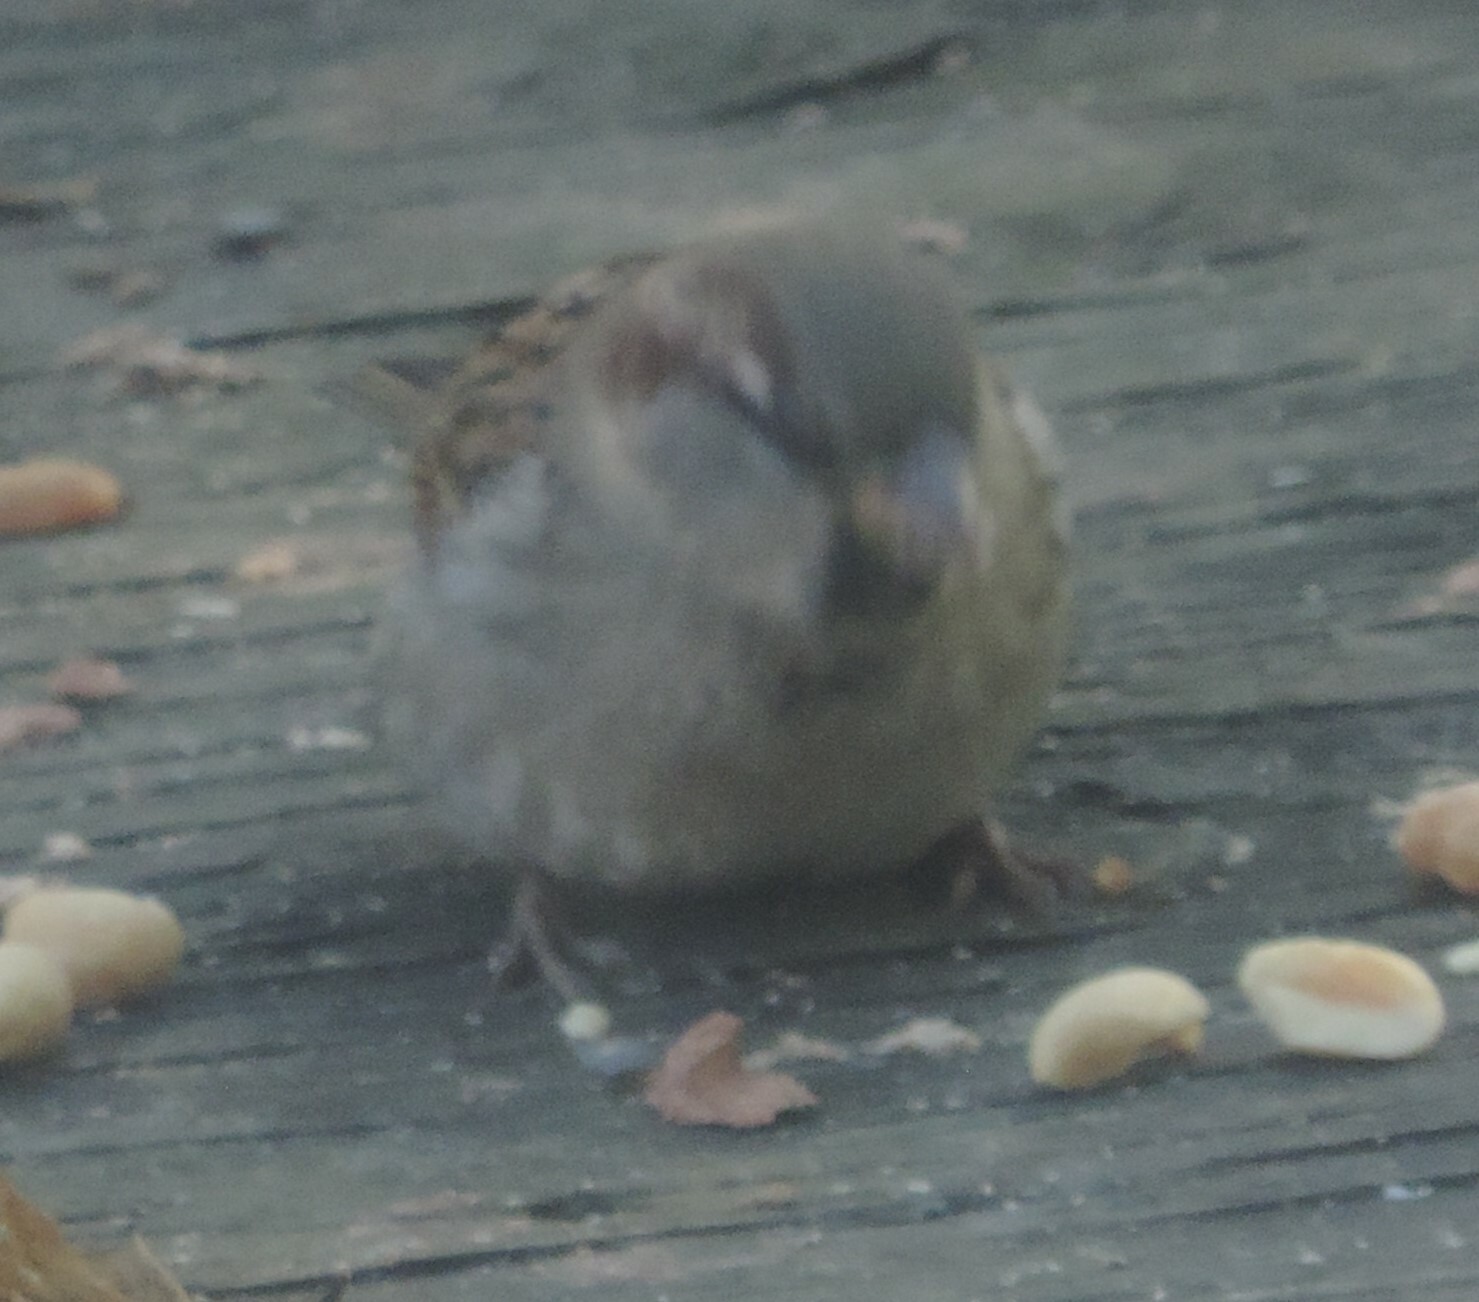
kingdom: Animalia
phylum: Chordata
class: Aves
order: Passeriformes
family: Passeridae
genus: Passer
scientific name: Passer domesticus
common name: House sparrow
